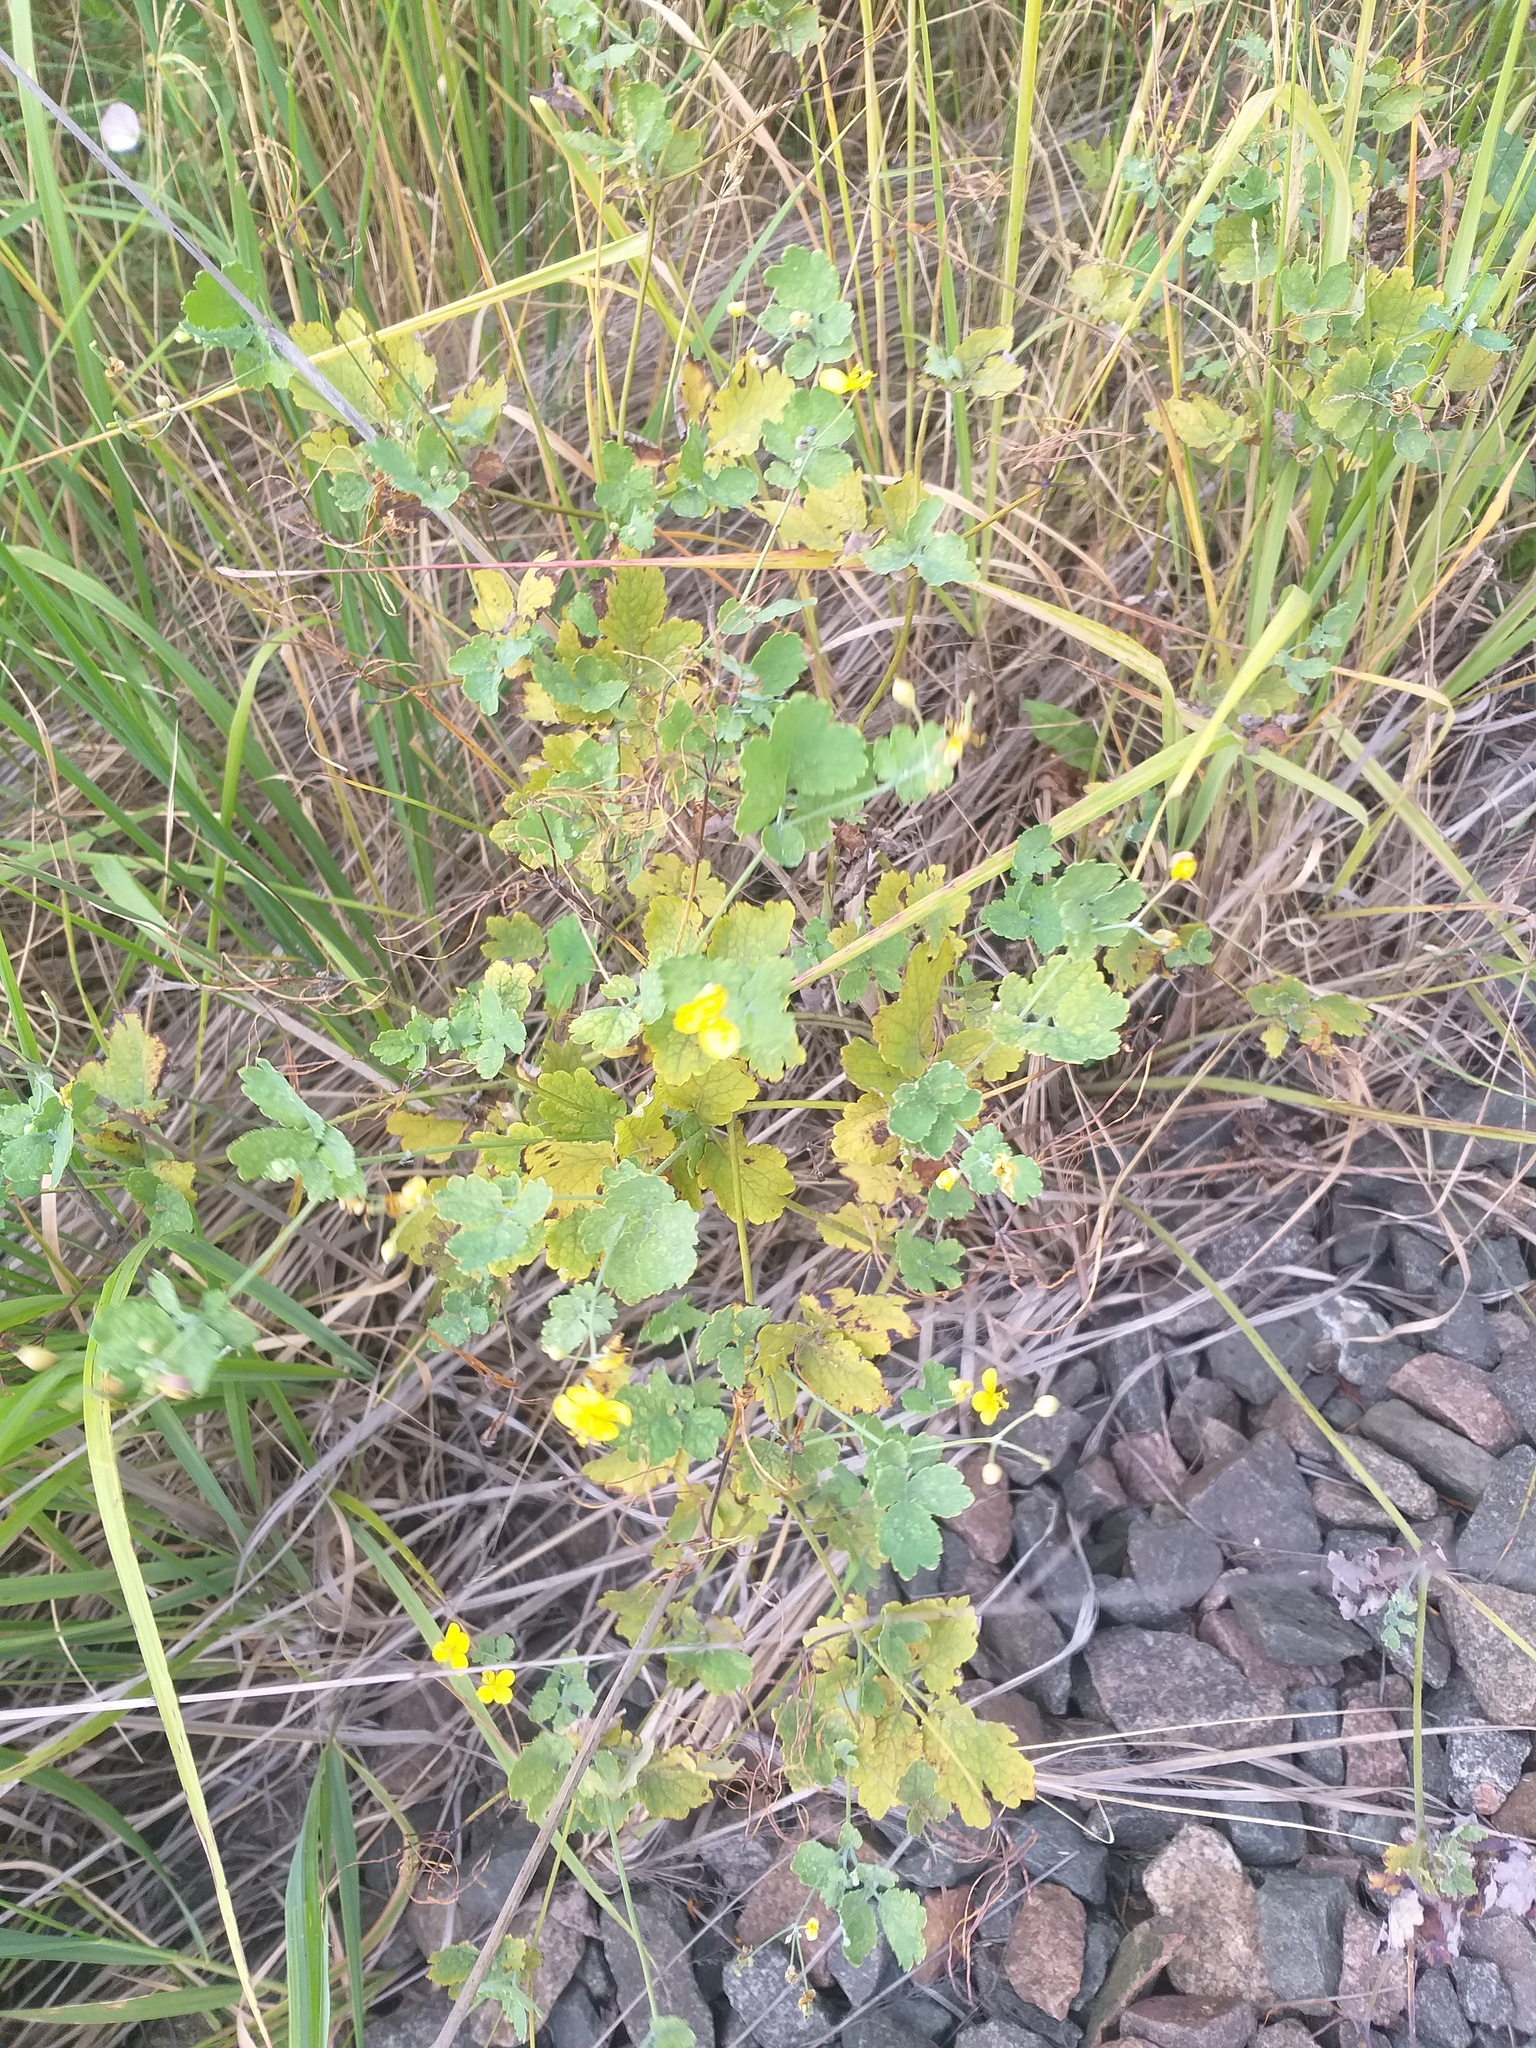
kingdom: Plantae
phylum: Tracheophyta
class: Magnoliopsida
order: Ranunculales
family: Papaveraceae
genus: Chelidonium
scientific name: Chelidonium majus
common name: Greater celandine
